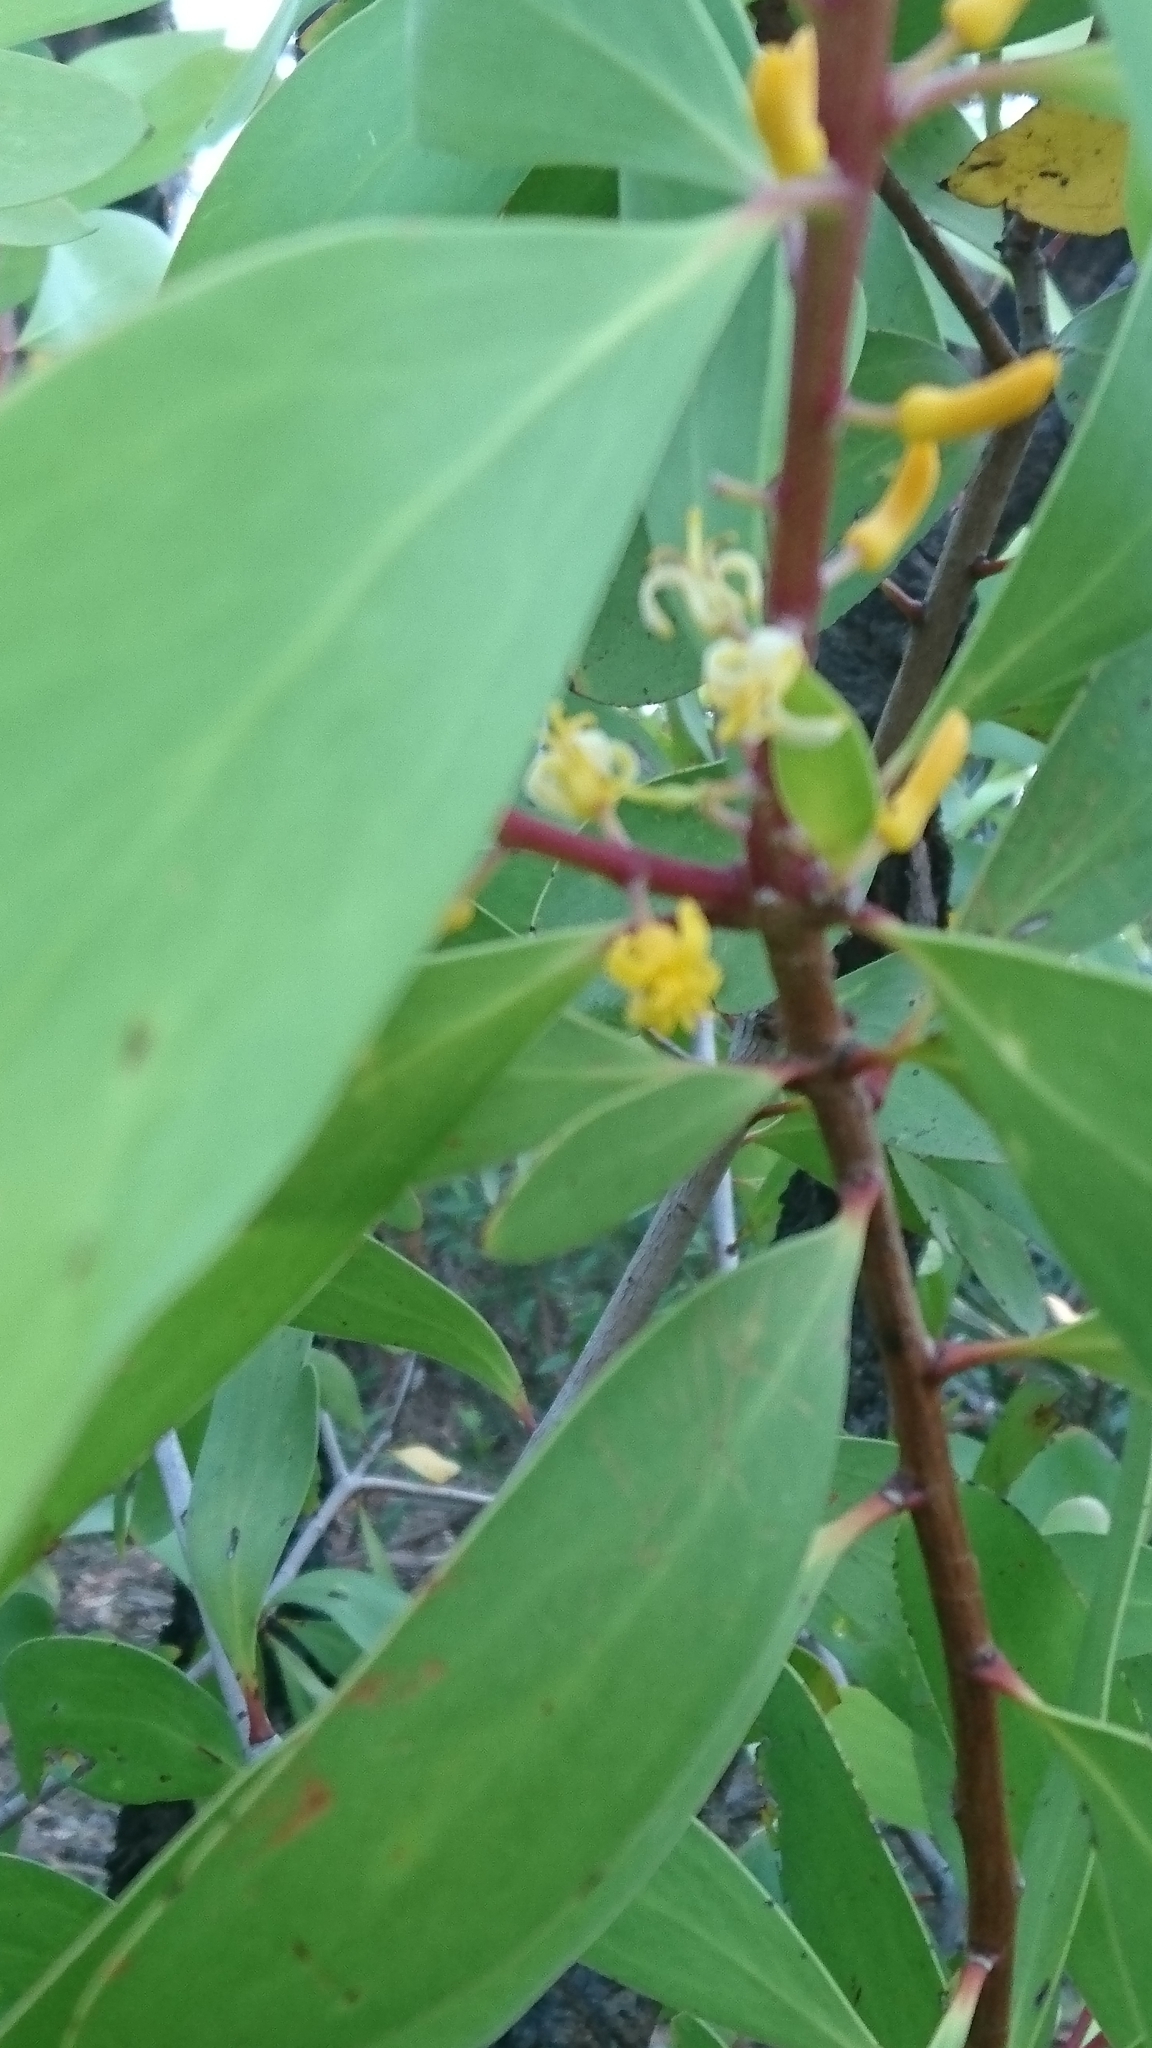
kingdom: Plantae
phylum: Tracheophyta
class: Magnoliopsida
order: Proteales
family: Proteaceae
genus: Persoonia
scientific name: Persoonia levis
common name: Smooth geebung
